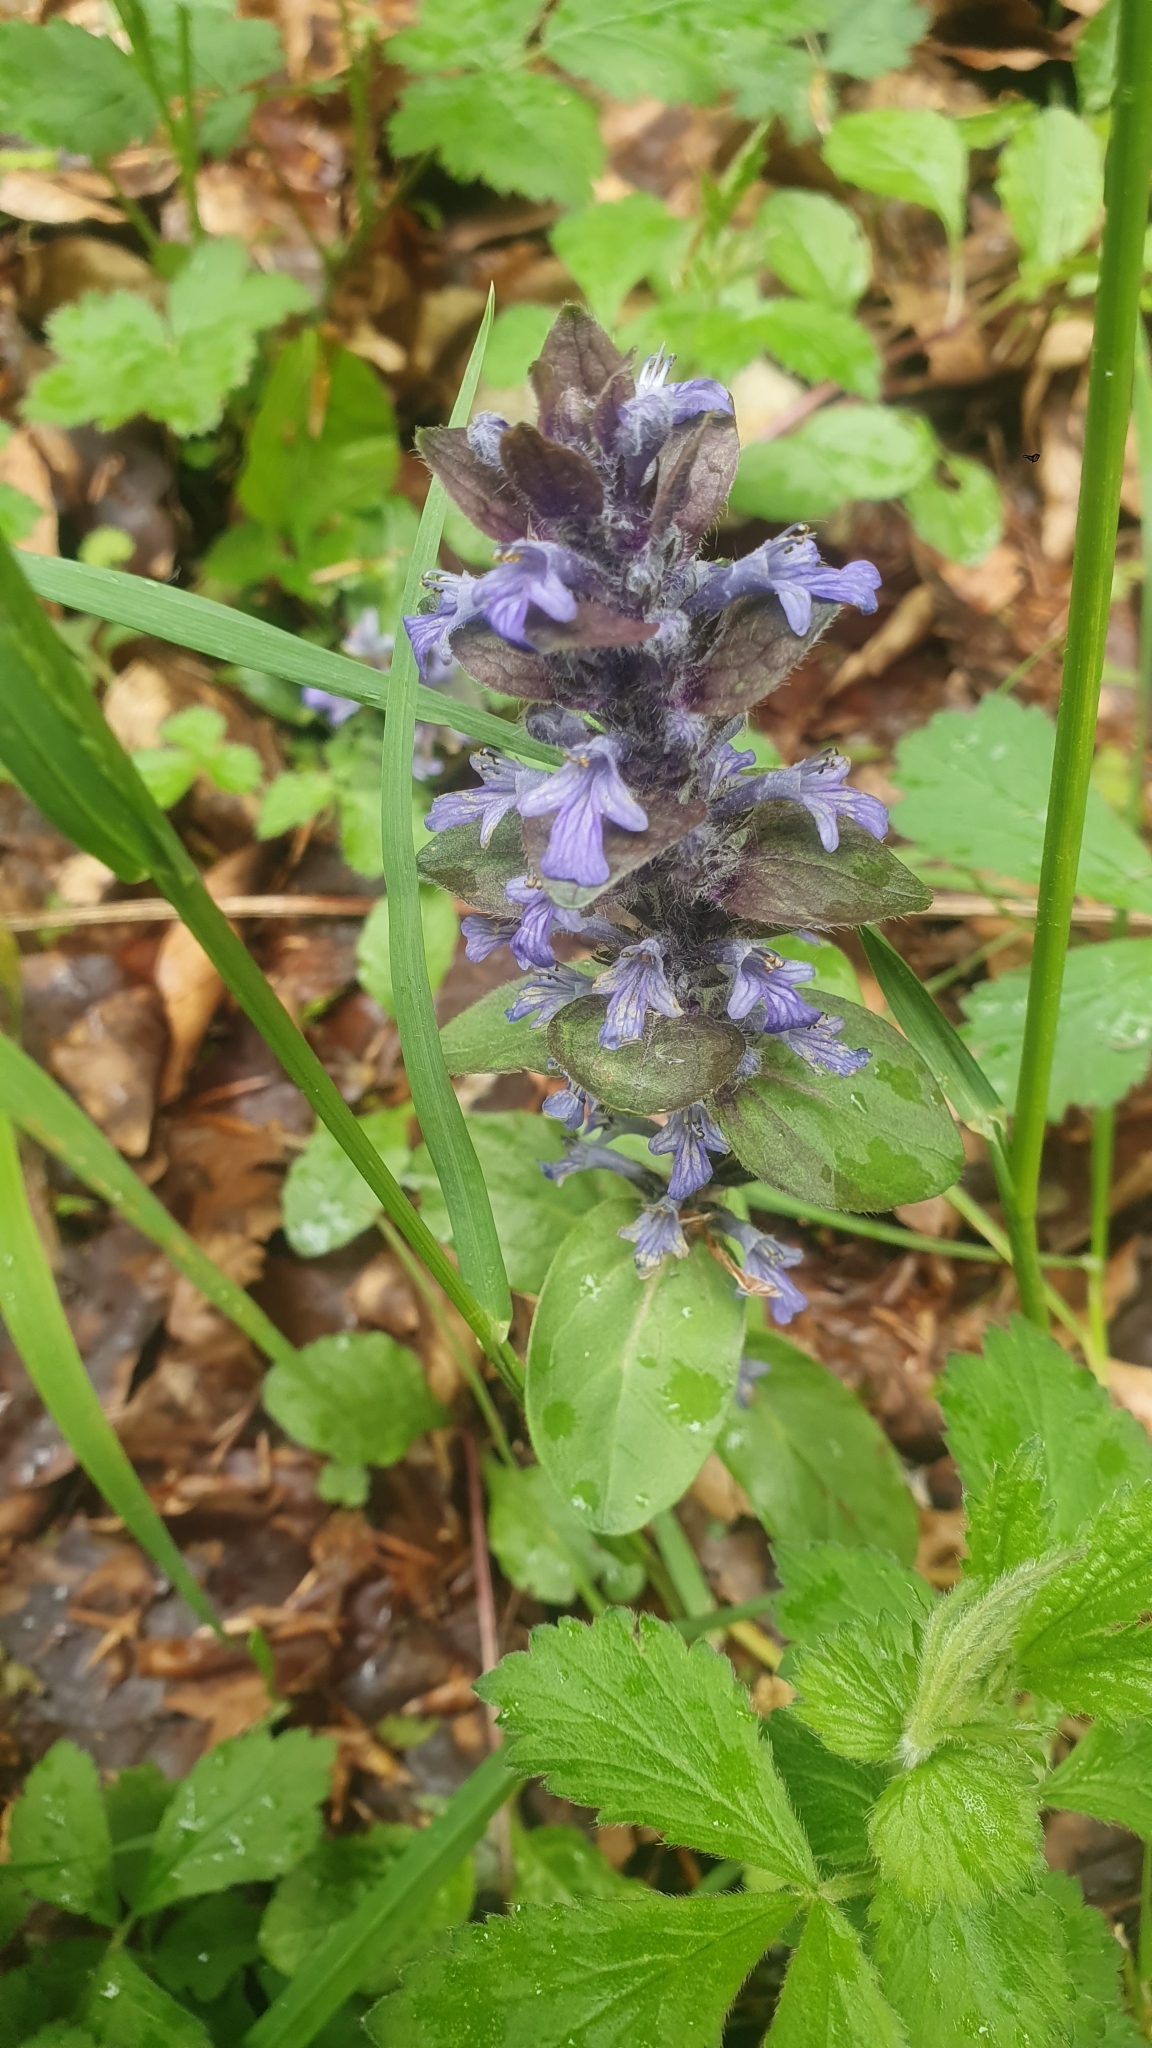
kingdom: Plantae
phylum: Tracheophyta
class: Magnoliopsida
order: Lamiales
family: Lamiaceae
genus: Ajuga
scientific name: Ajuga reptans
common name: Bugle
